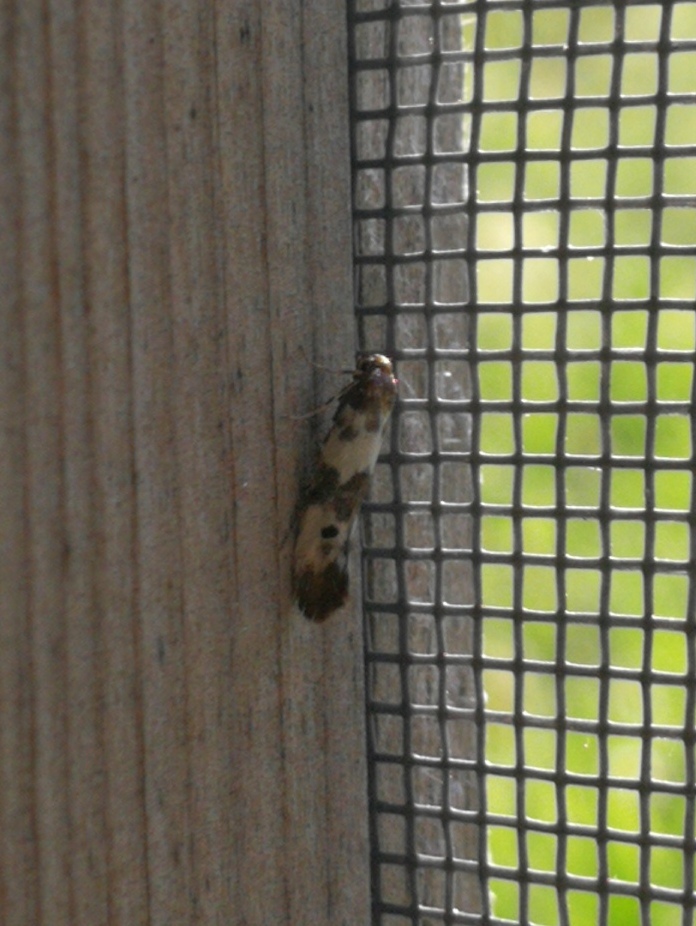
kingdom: Animalia
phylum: Arthropoda
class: Insecta
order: Lepidoptera
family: Scythrididae
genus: Enolmis
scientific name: Enolmis acanthella
